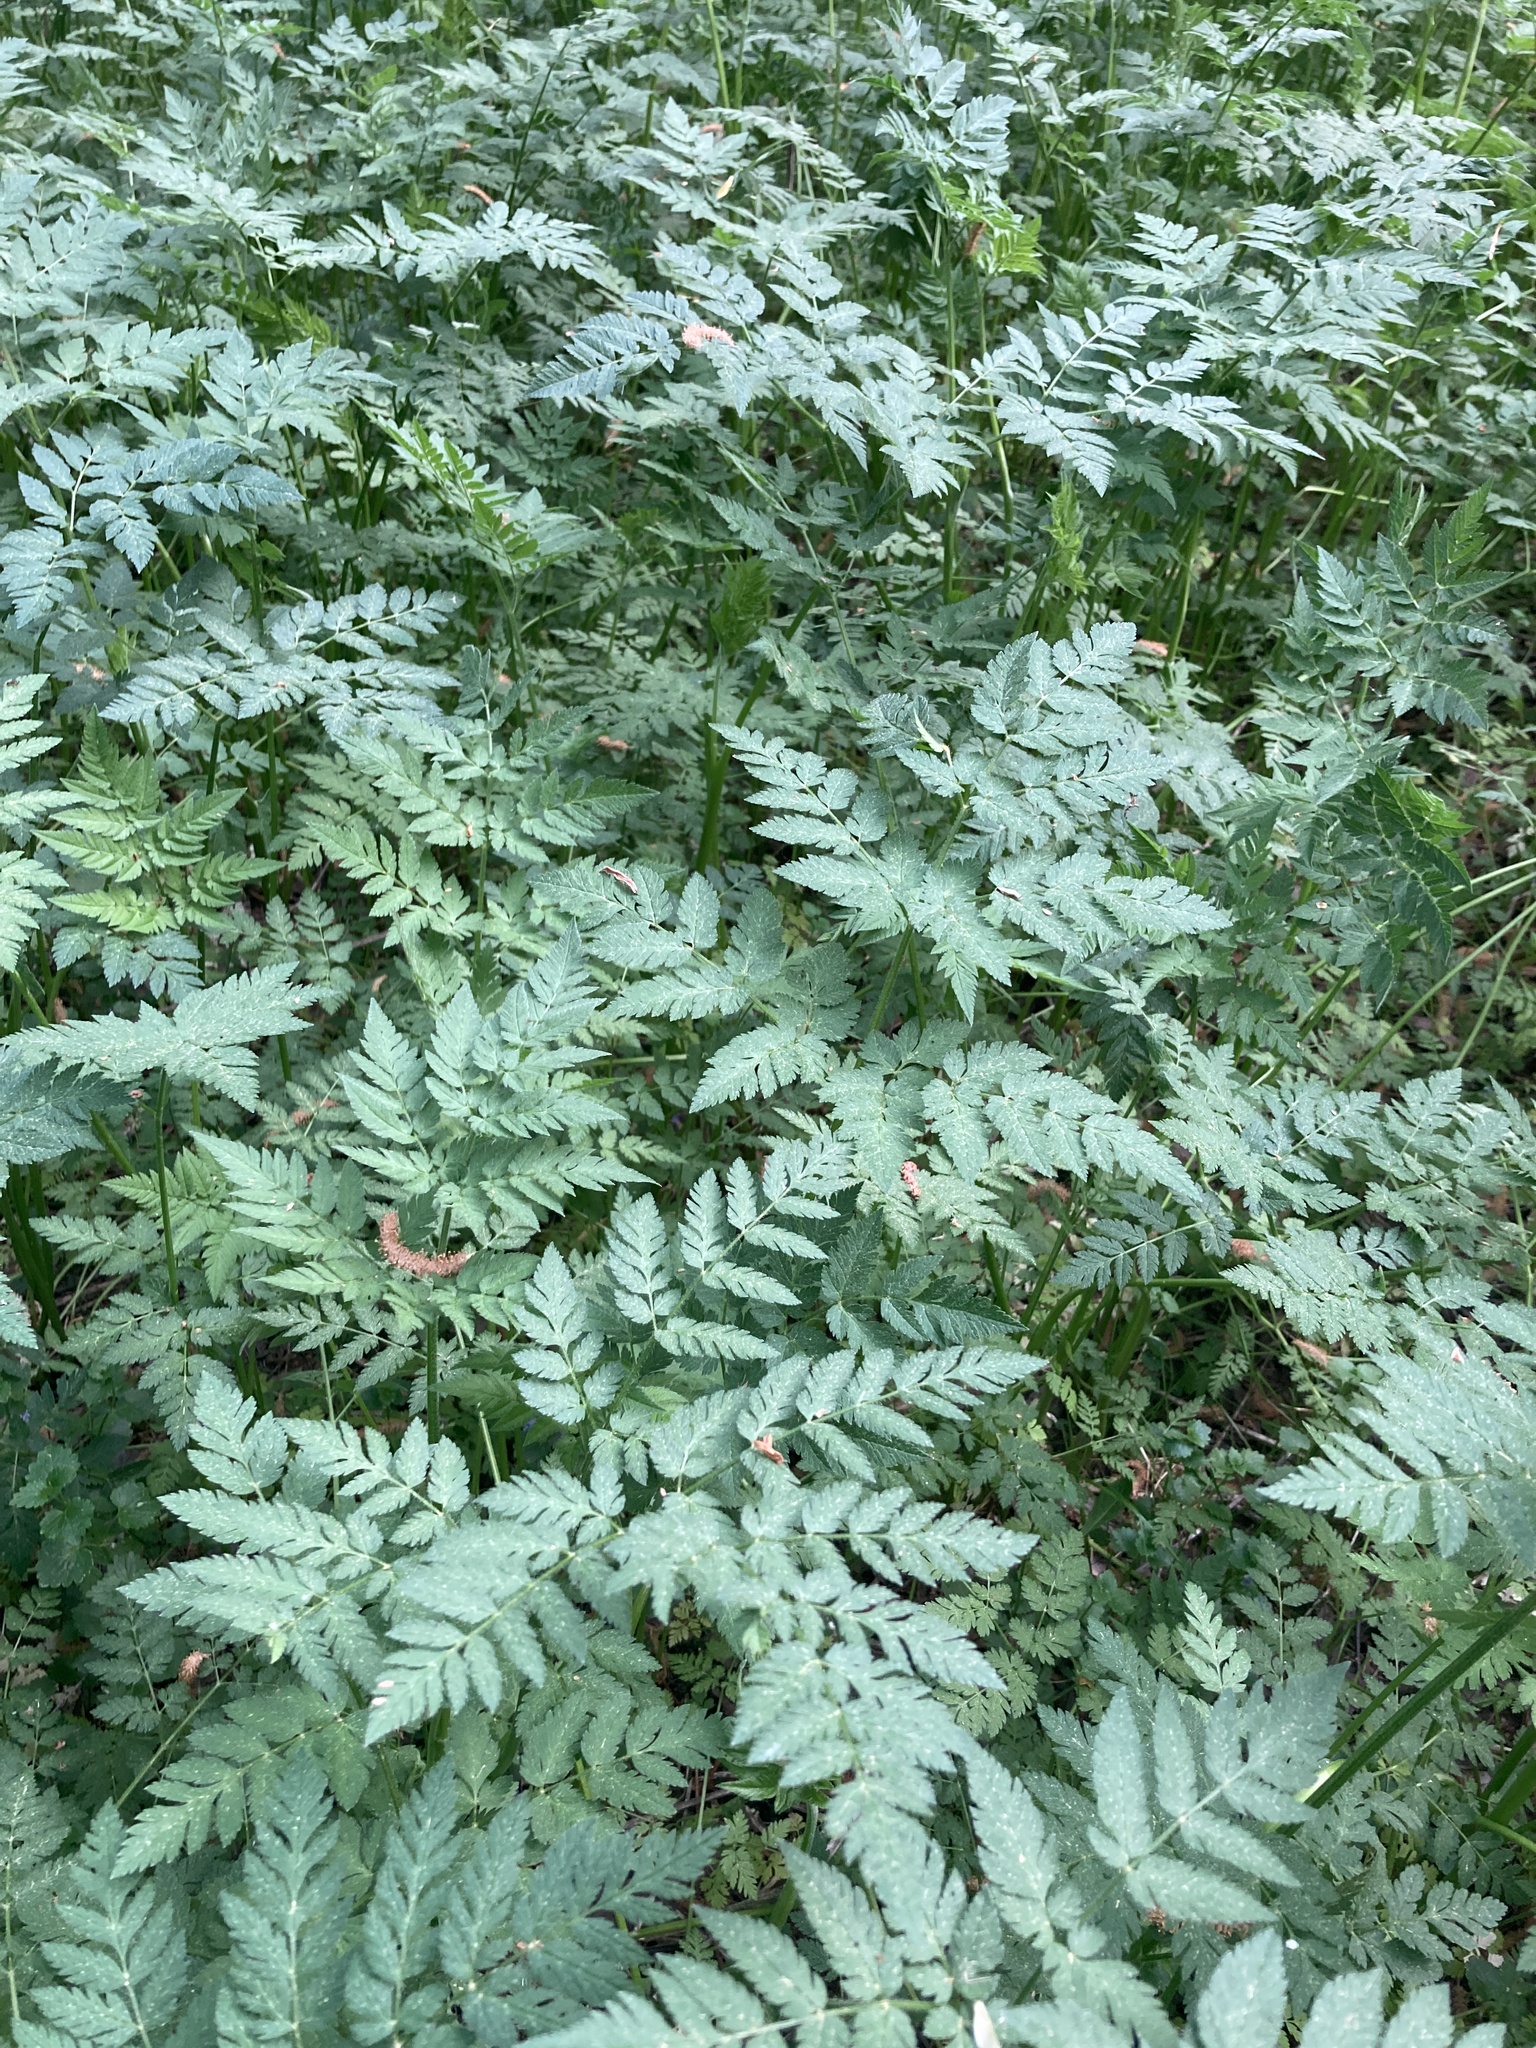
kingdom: Plantae
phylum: Tracheophyta
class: Magnoliopsida
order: Apiales
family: Apiaceae
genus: Chaerophyllum
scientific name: Chaerophyllum aureum
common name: Golden chervil
